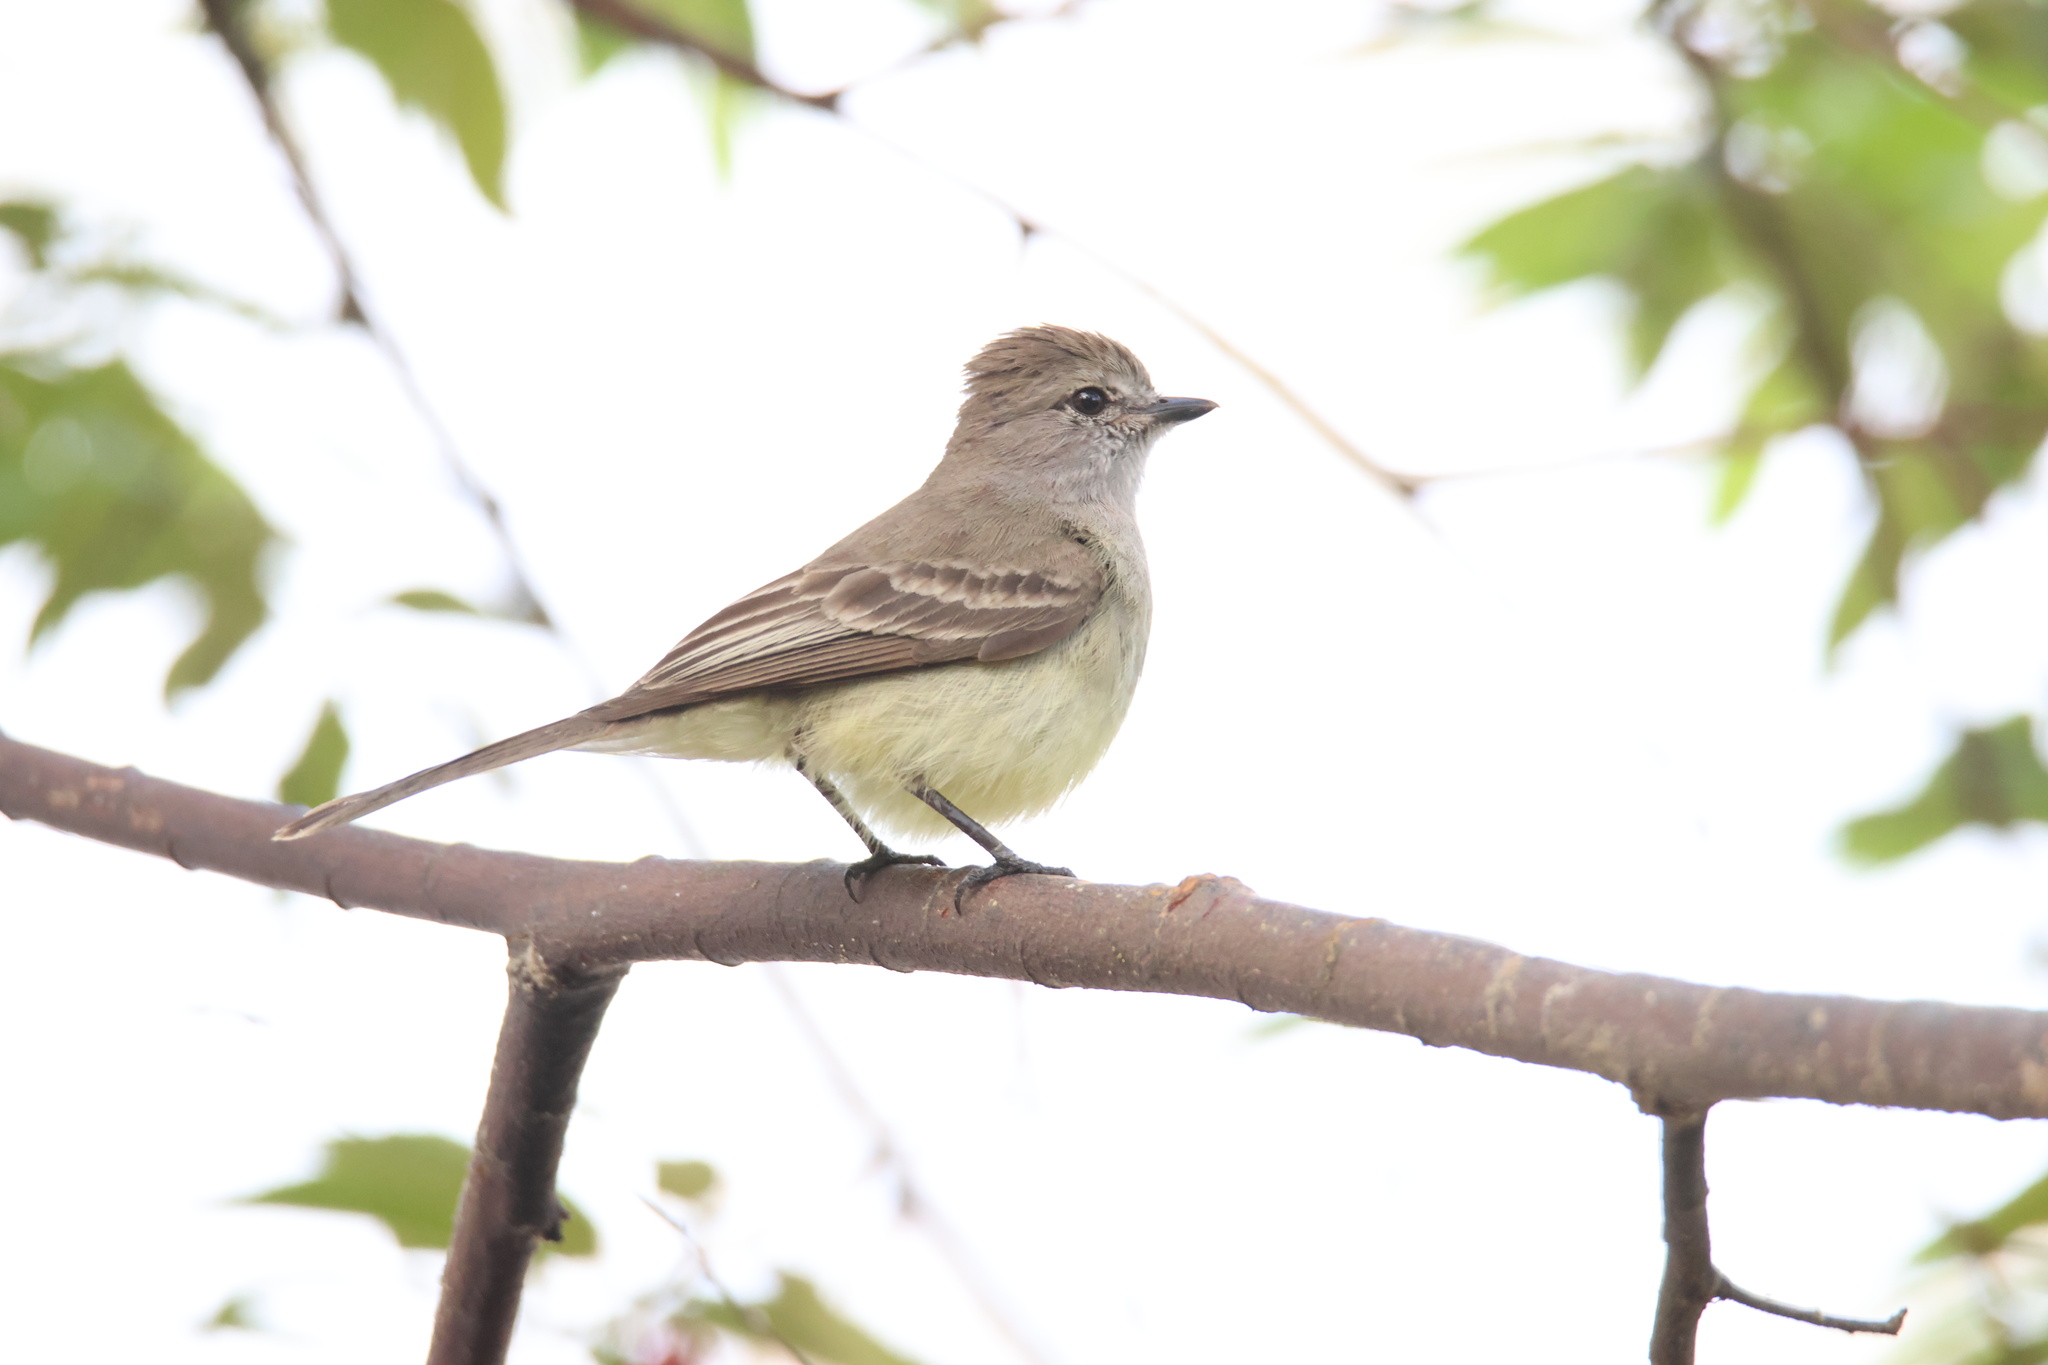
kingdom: Animalia
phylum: Chordata
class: Aves
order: Passeriformes
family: Tyrannidae
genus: Sublegatus
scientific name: Sublegatus arenarum
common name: Northern scrub-flycatcher
